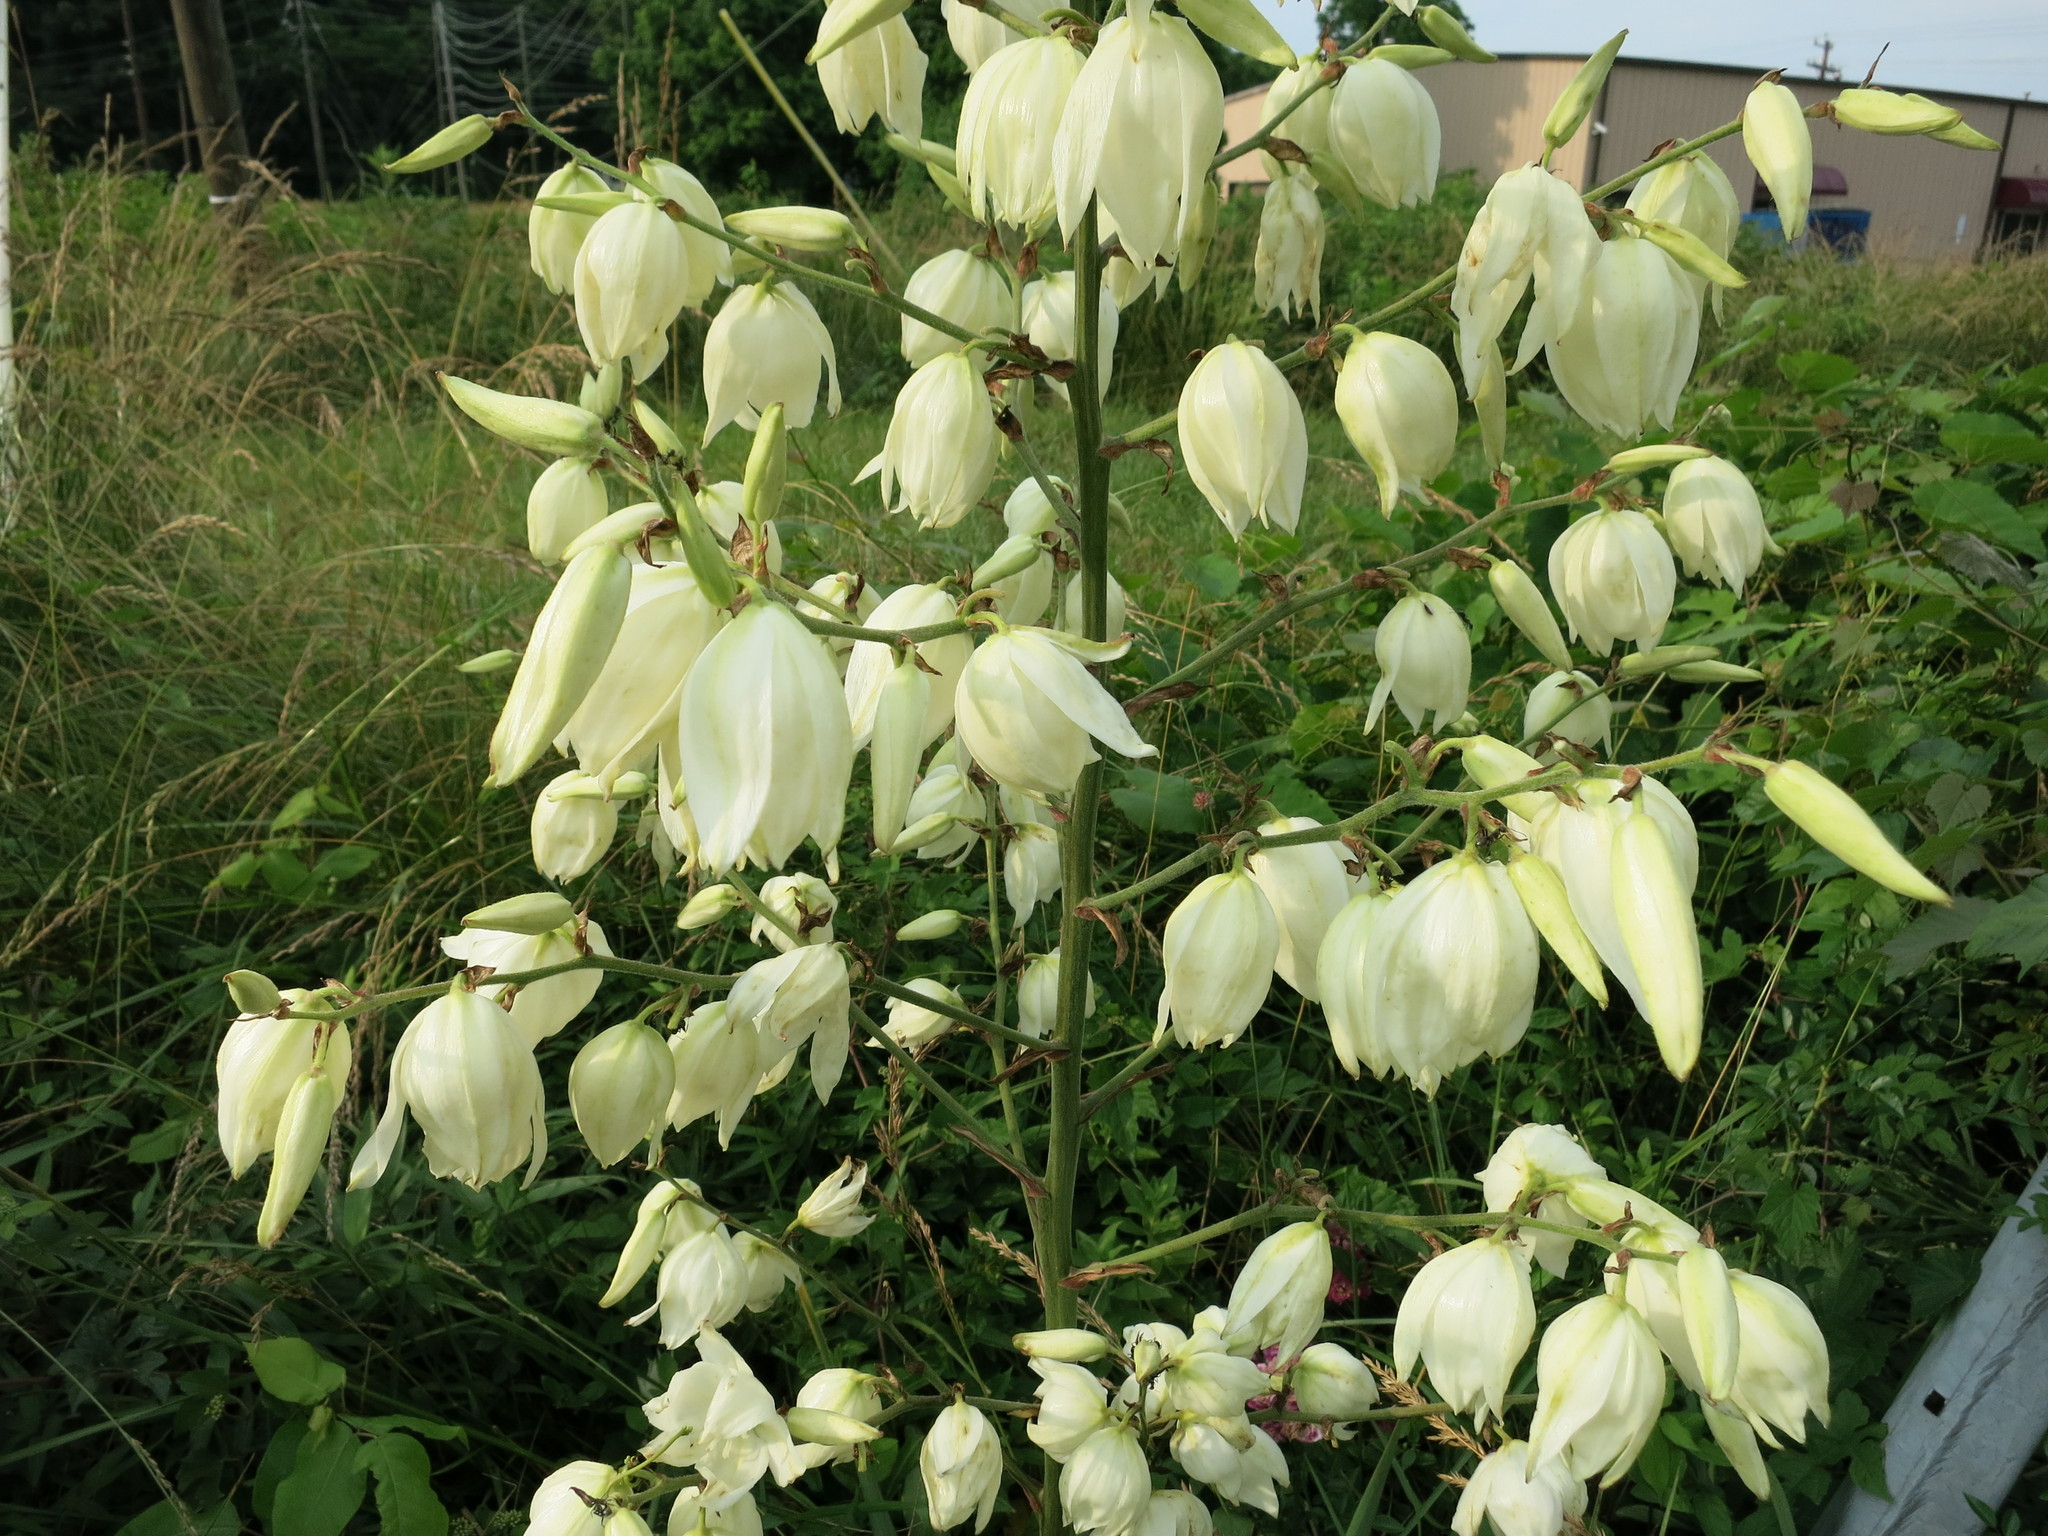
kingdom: Plantae
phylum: Tracheophyta
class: Liliopsida
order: Asparagales
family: Asparagaceae
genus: Yucca
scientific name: Yucca filamentosa
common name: Adam's-needle
